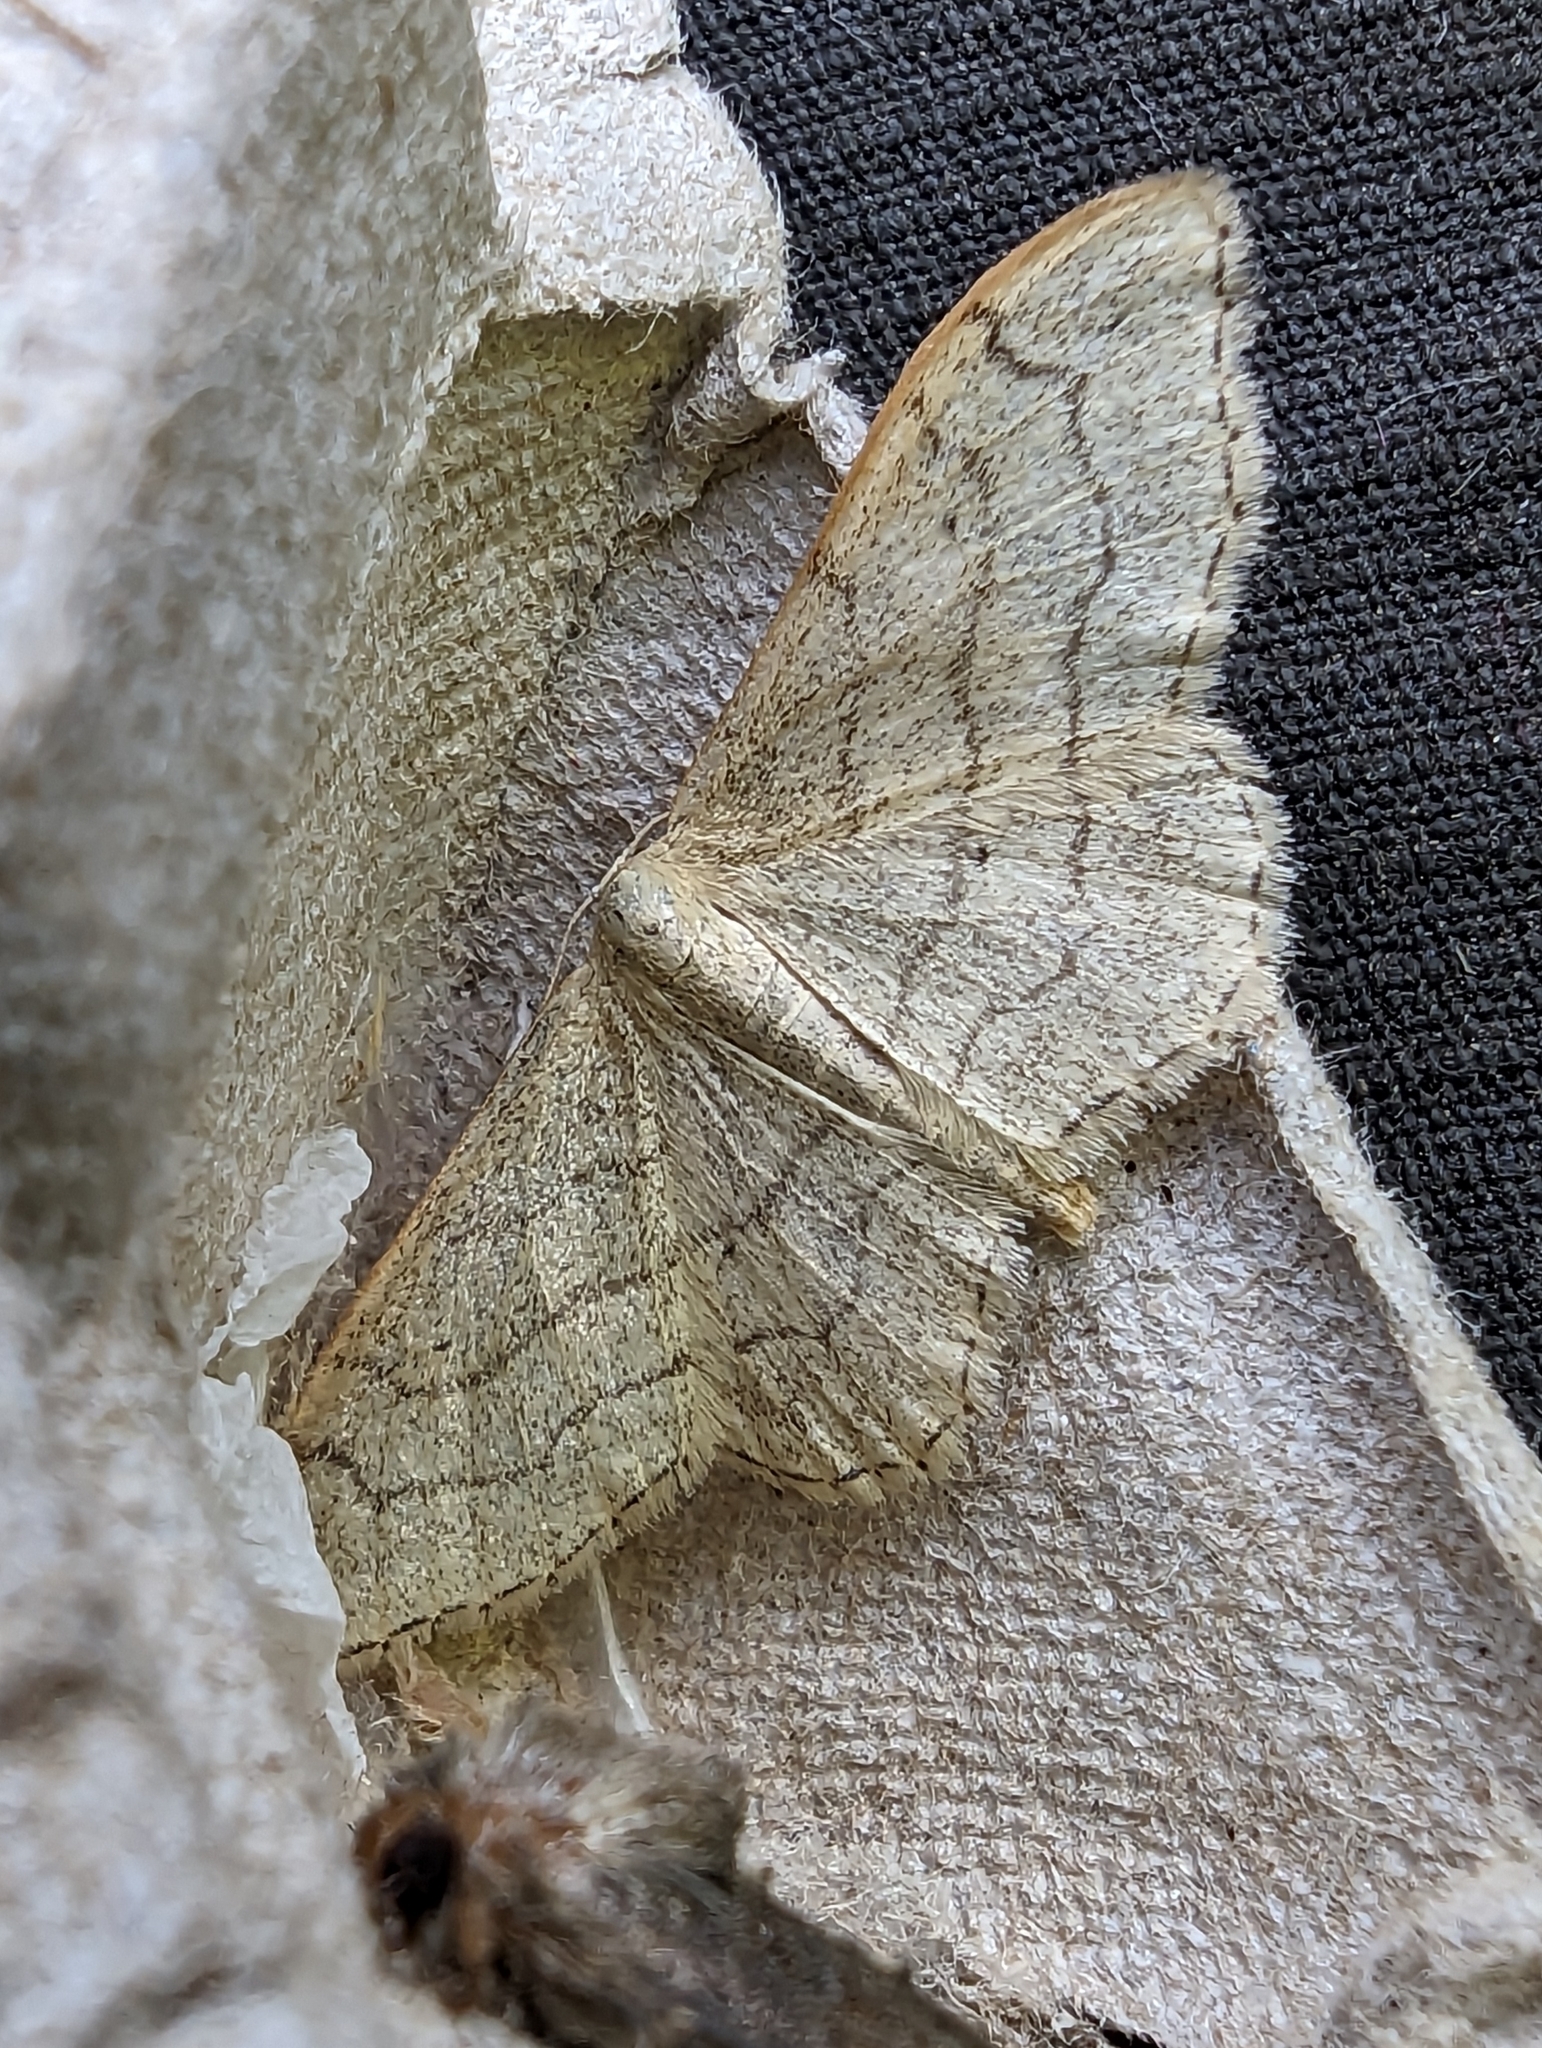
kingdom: Animalia
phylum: Arthropoda
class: Insecta
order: Lepidoptera
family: Geometridae
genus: Idaea
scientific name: Idaea aversata
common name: Riband wave
